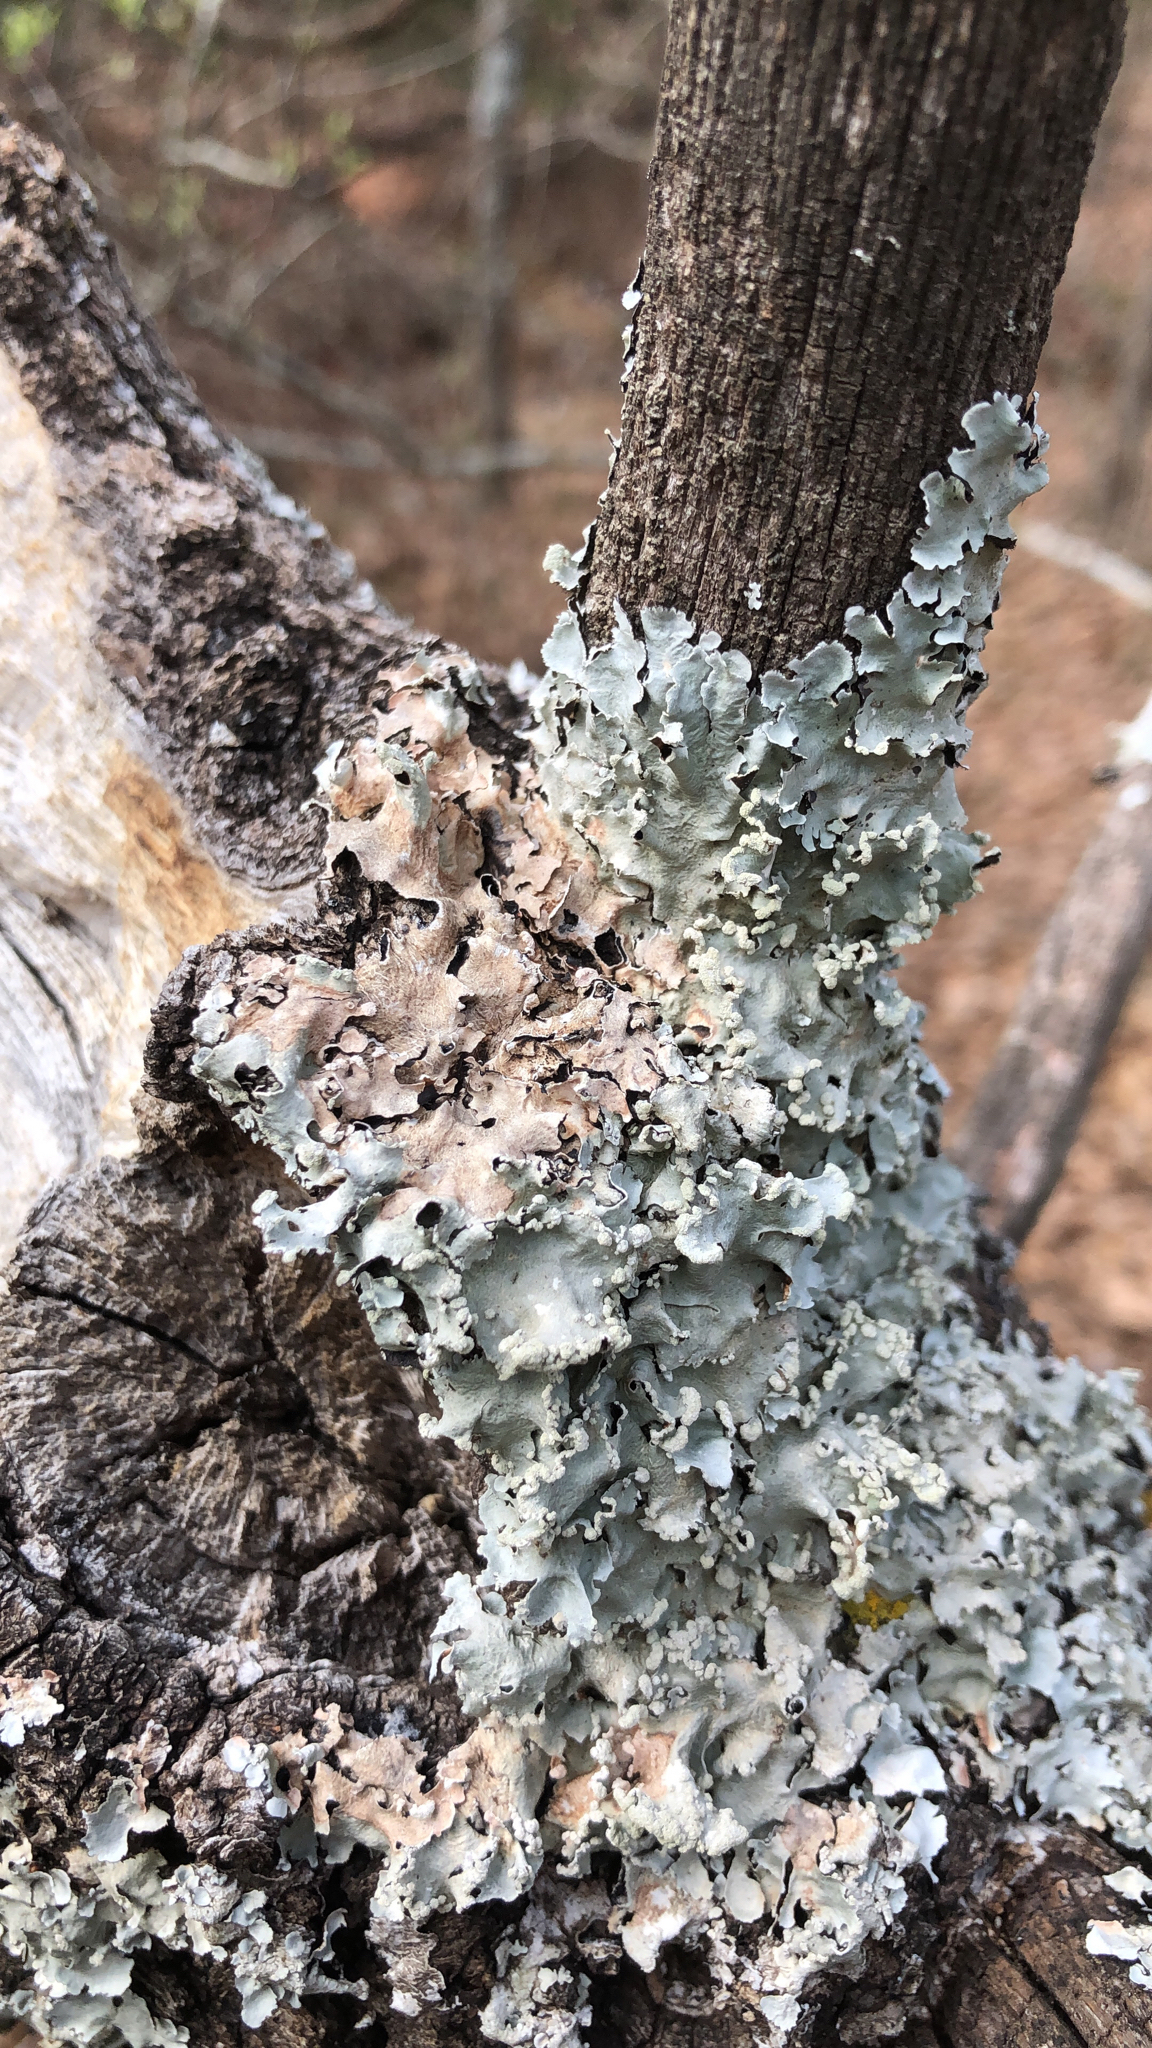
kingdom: Fungi
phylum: Ascomycota
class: Lecanoromycetes
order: Lecanorales
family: Parmeliaceae
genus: Parmotrema
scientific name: Parmotrema reticulatum
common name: Black sheet lichen
